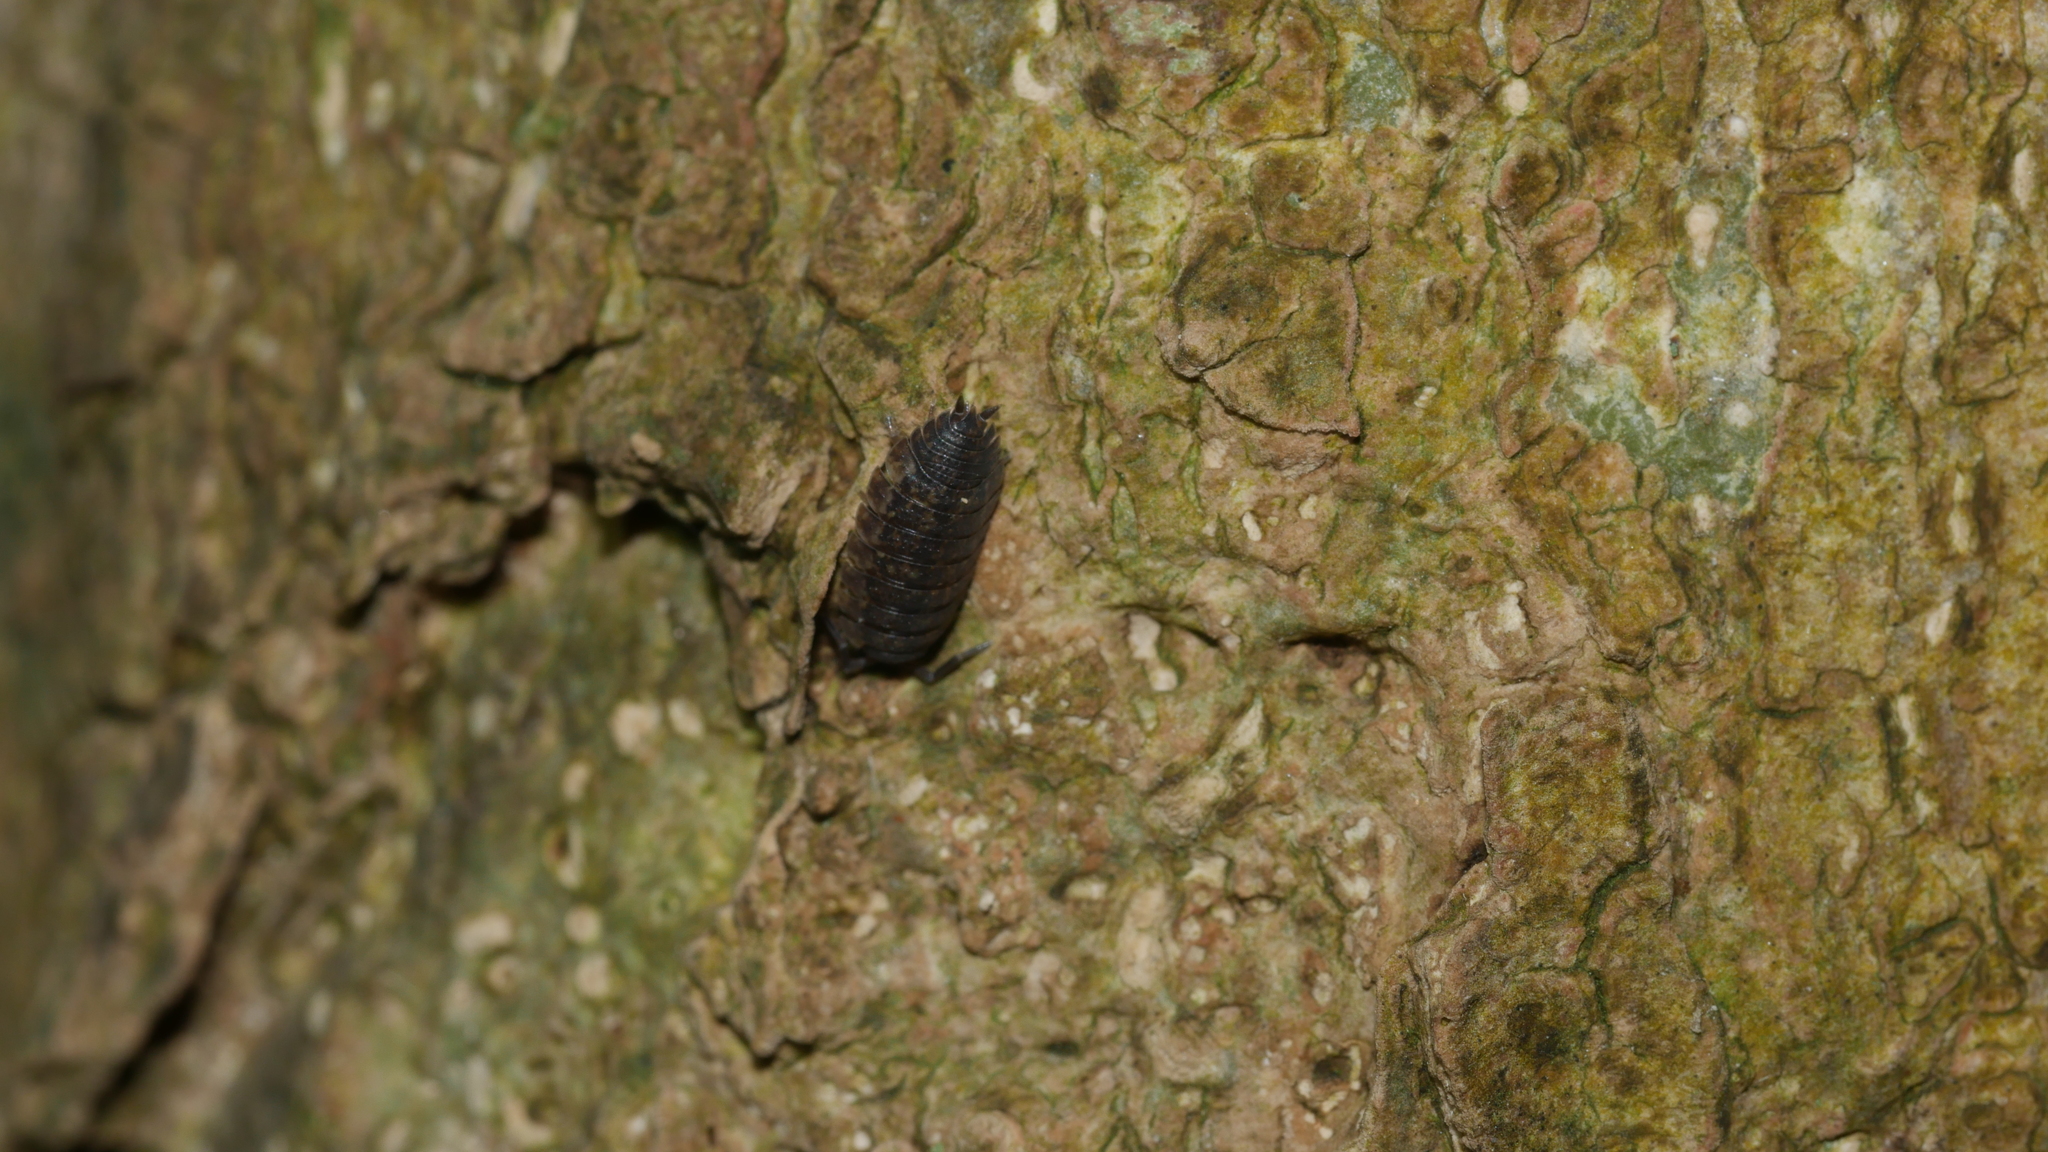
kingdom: Animalia
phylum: Arthropoda
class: Malacostraca
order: Isopoda
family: Porcellionidae
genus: Porcellio
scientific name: Porcellio scaber
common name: Common rough woodlouse
